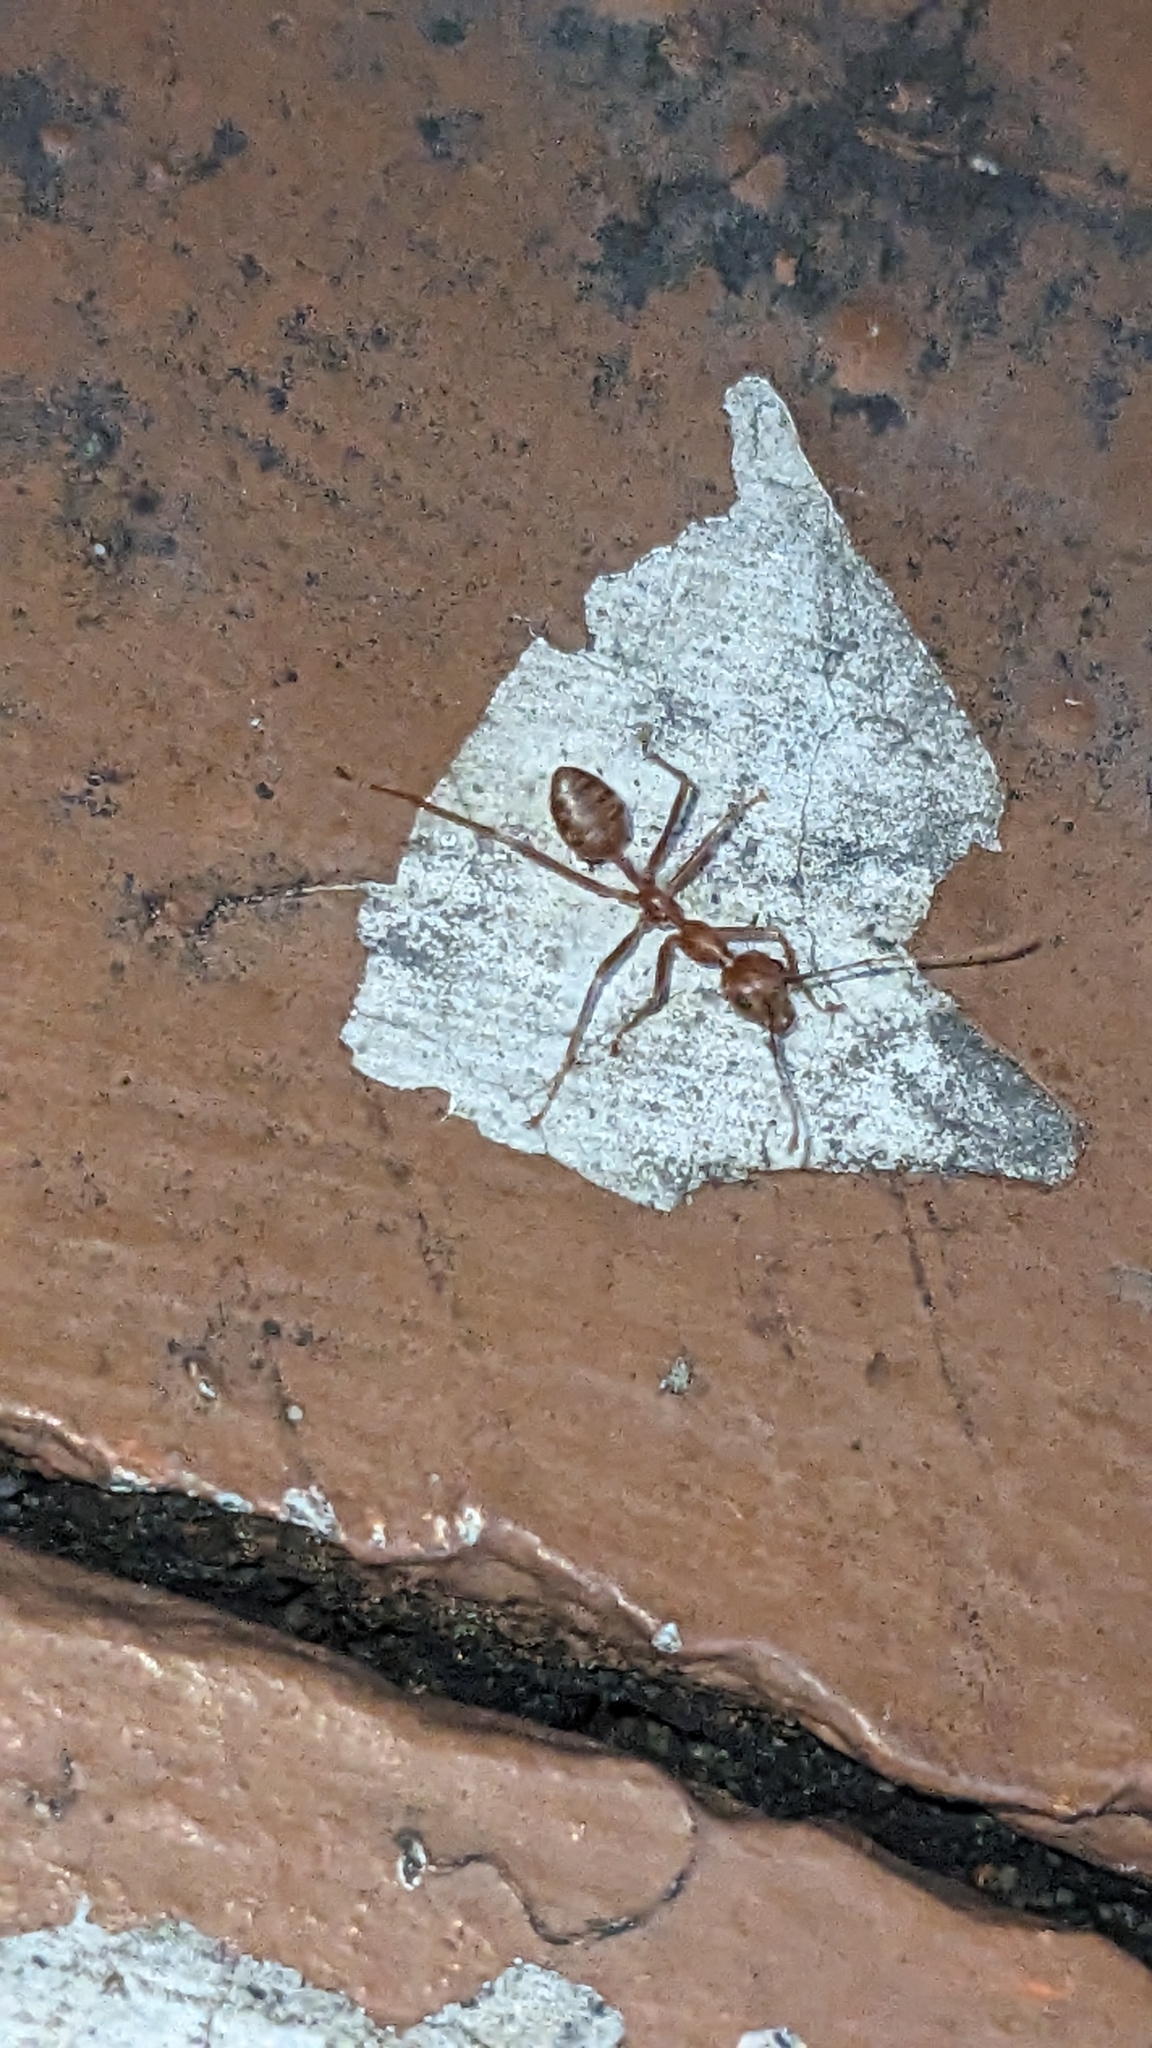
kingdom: Animalia
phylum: Arthropoda
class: Insecta
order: Hymenoptera
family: Formicidae
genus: Oecophylla
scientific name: Oecophylla smaragdina
